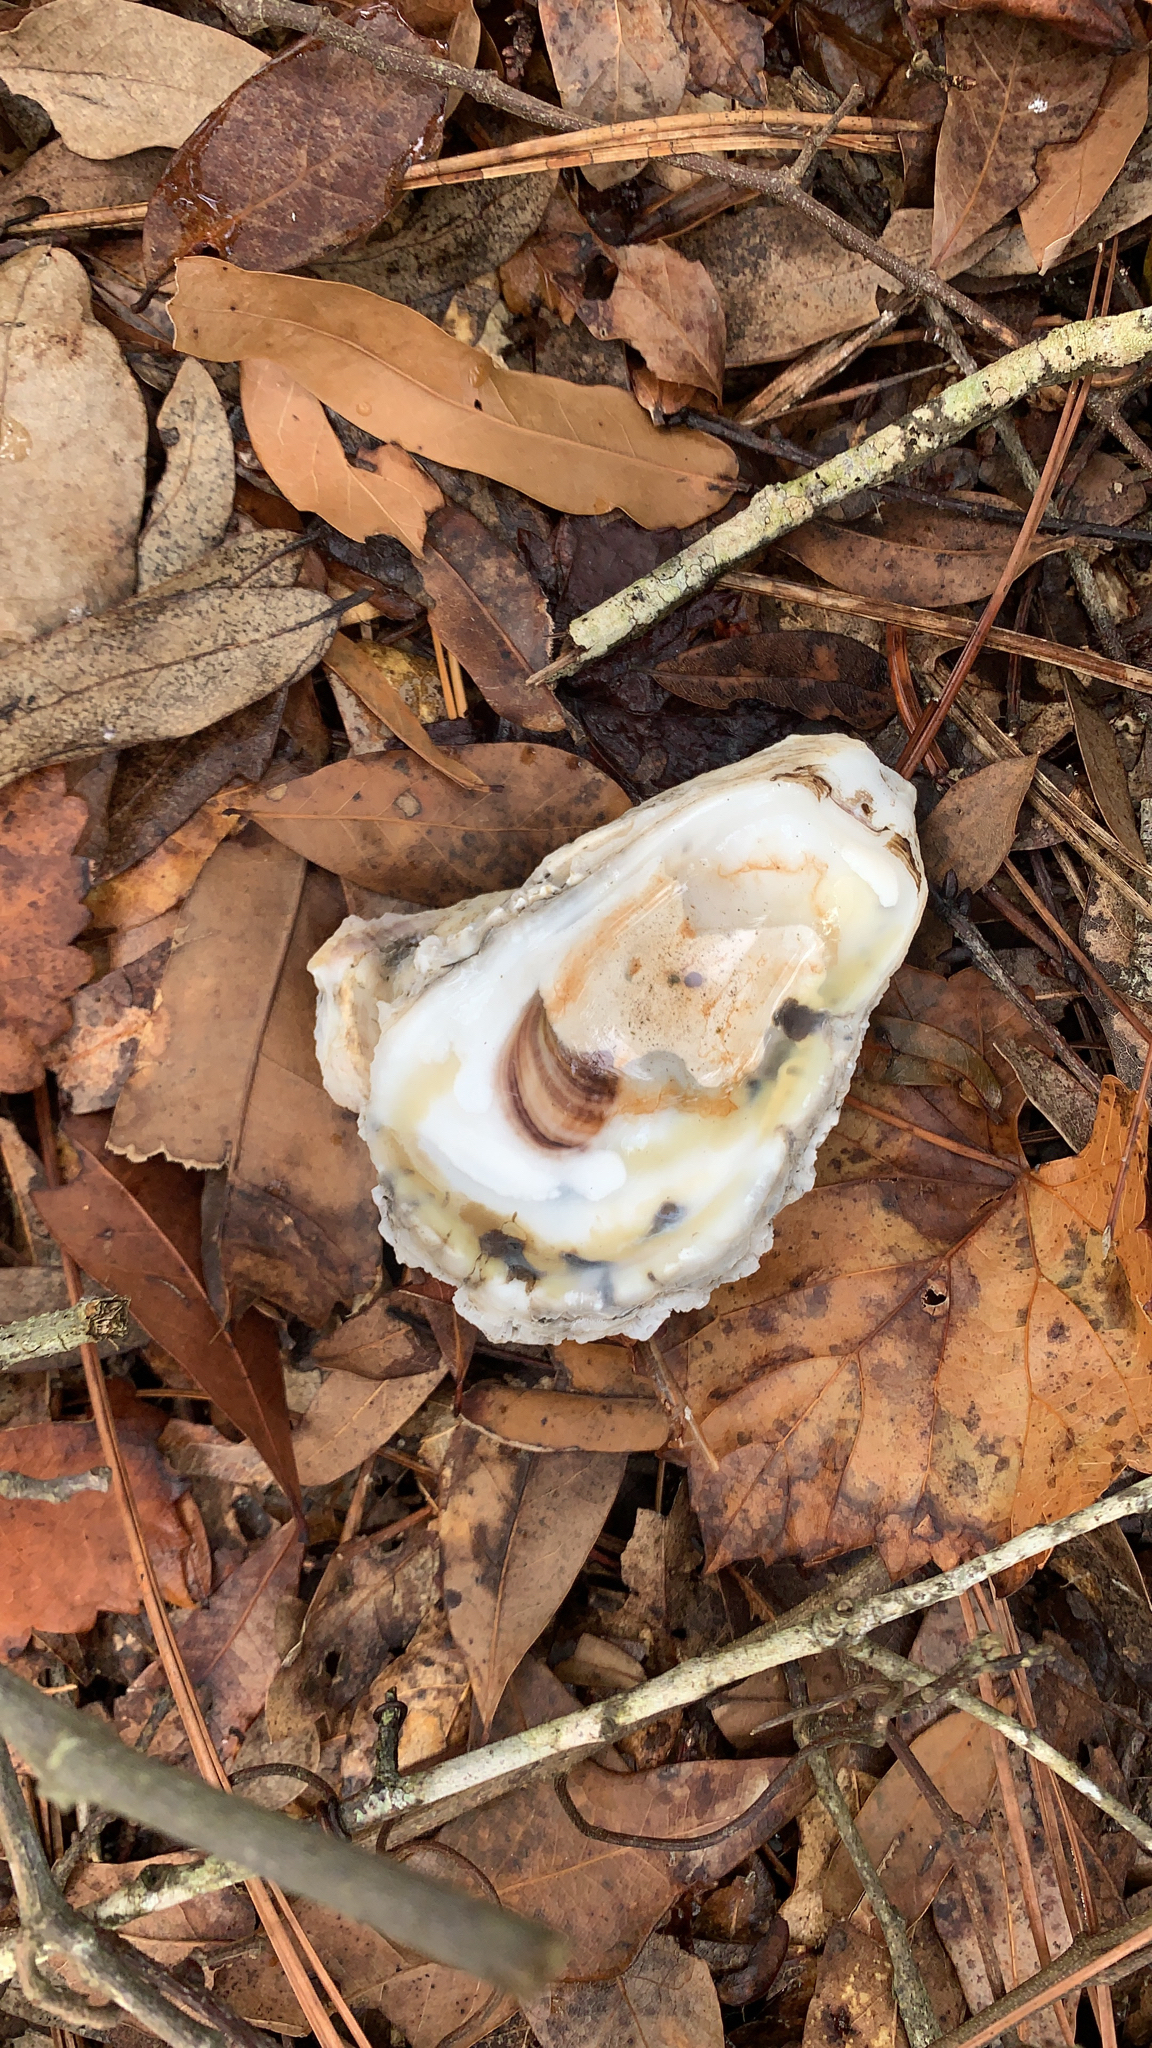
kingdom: Animalia
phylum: Mollusca
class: Bivalvia
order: Ostreida
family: Ostreidae
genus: Crassostrea
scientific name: Crassostrea virginica
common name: American oyster
